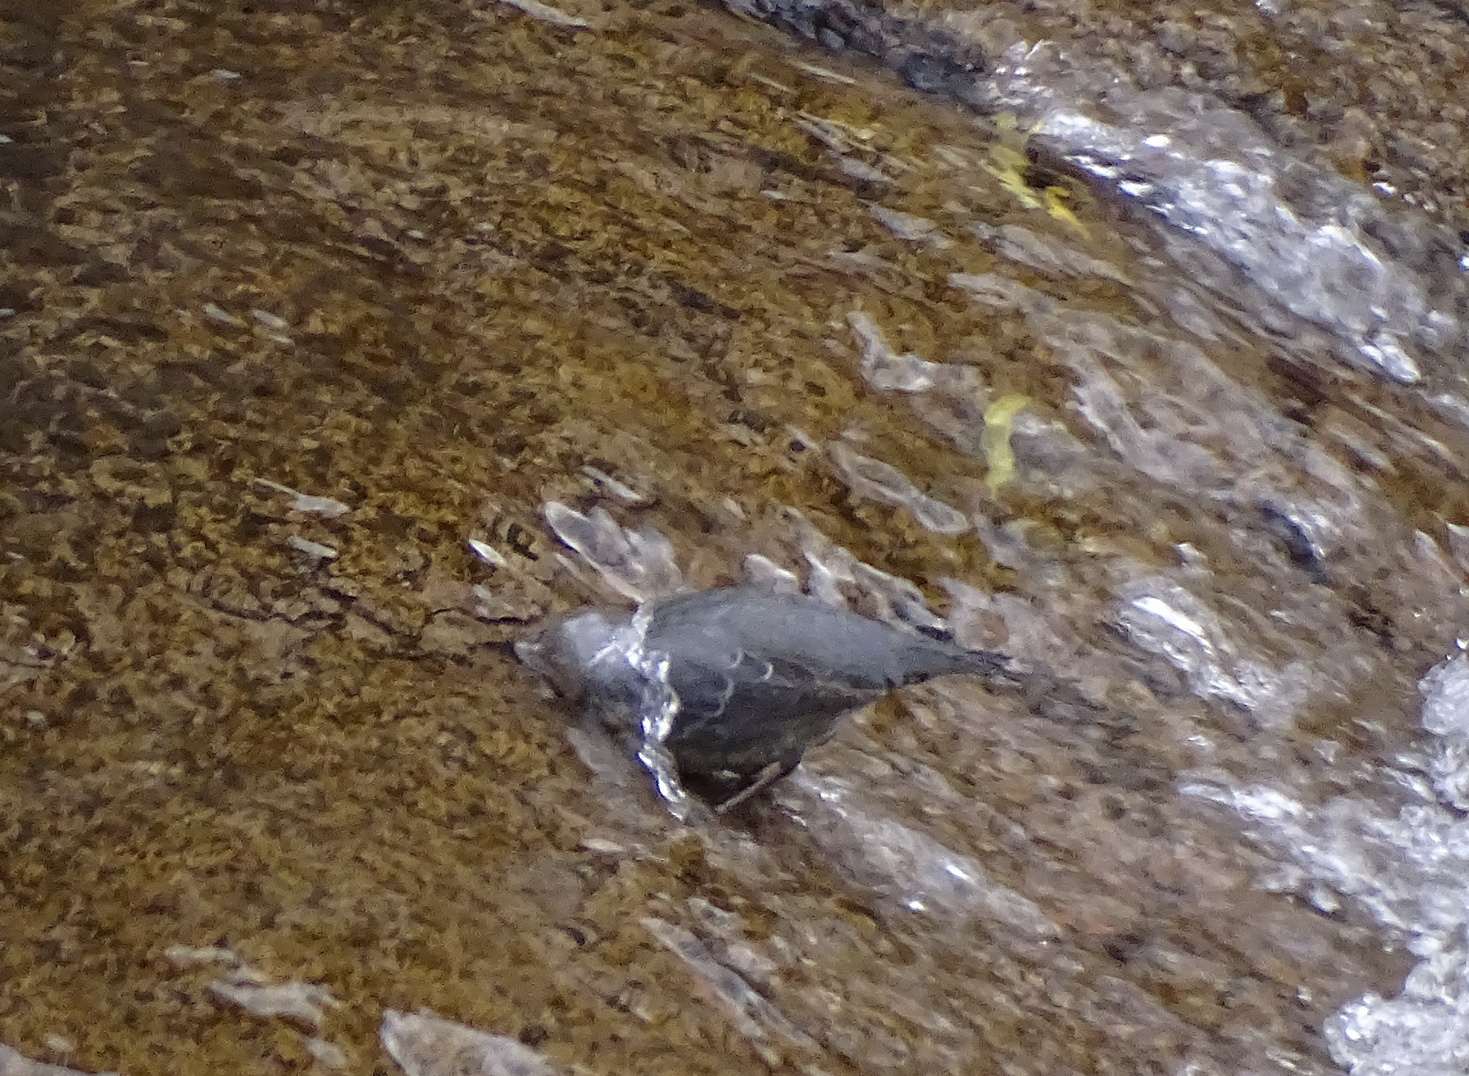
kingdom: Animalia
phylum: Chordata
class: Aves
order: Passeriformes
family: Cinclidae
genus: Cinclus
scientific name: Cinclus mexicanus
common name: American dipper
